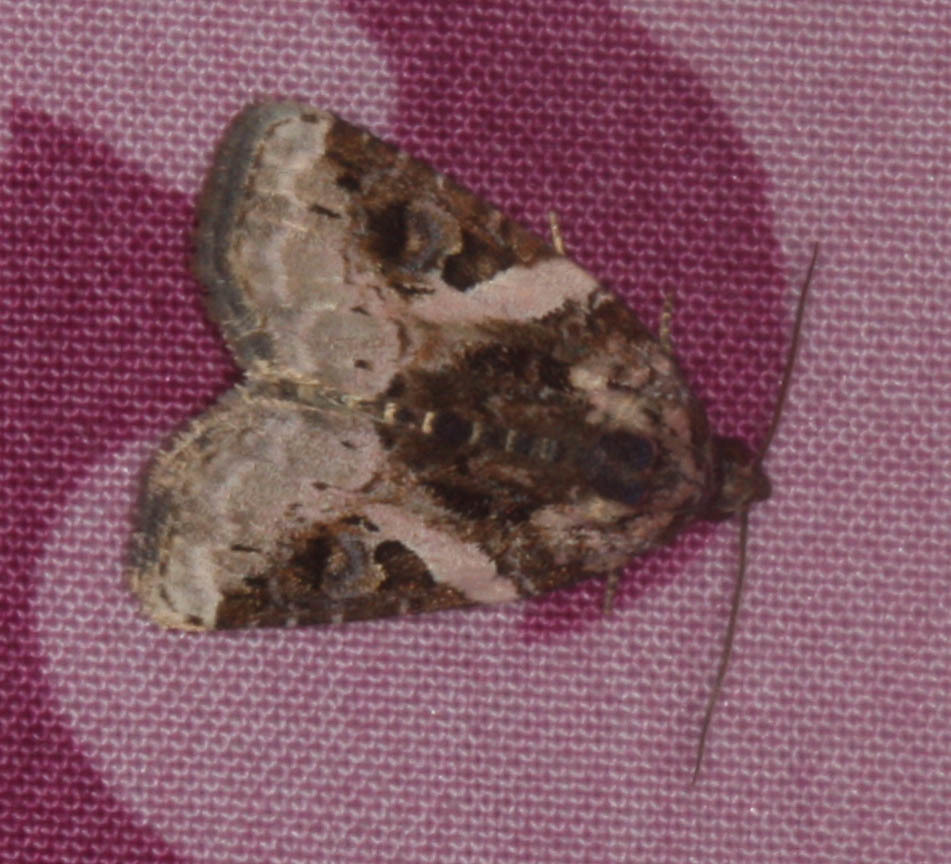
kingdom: Animalia
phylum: Arthropoda
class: Insecta
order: Lepidoptera
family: Noctuidae
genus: Pseudeustrotia
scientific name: Pseudeustrotia carneola
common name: Pink-barred lithacodia moth
